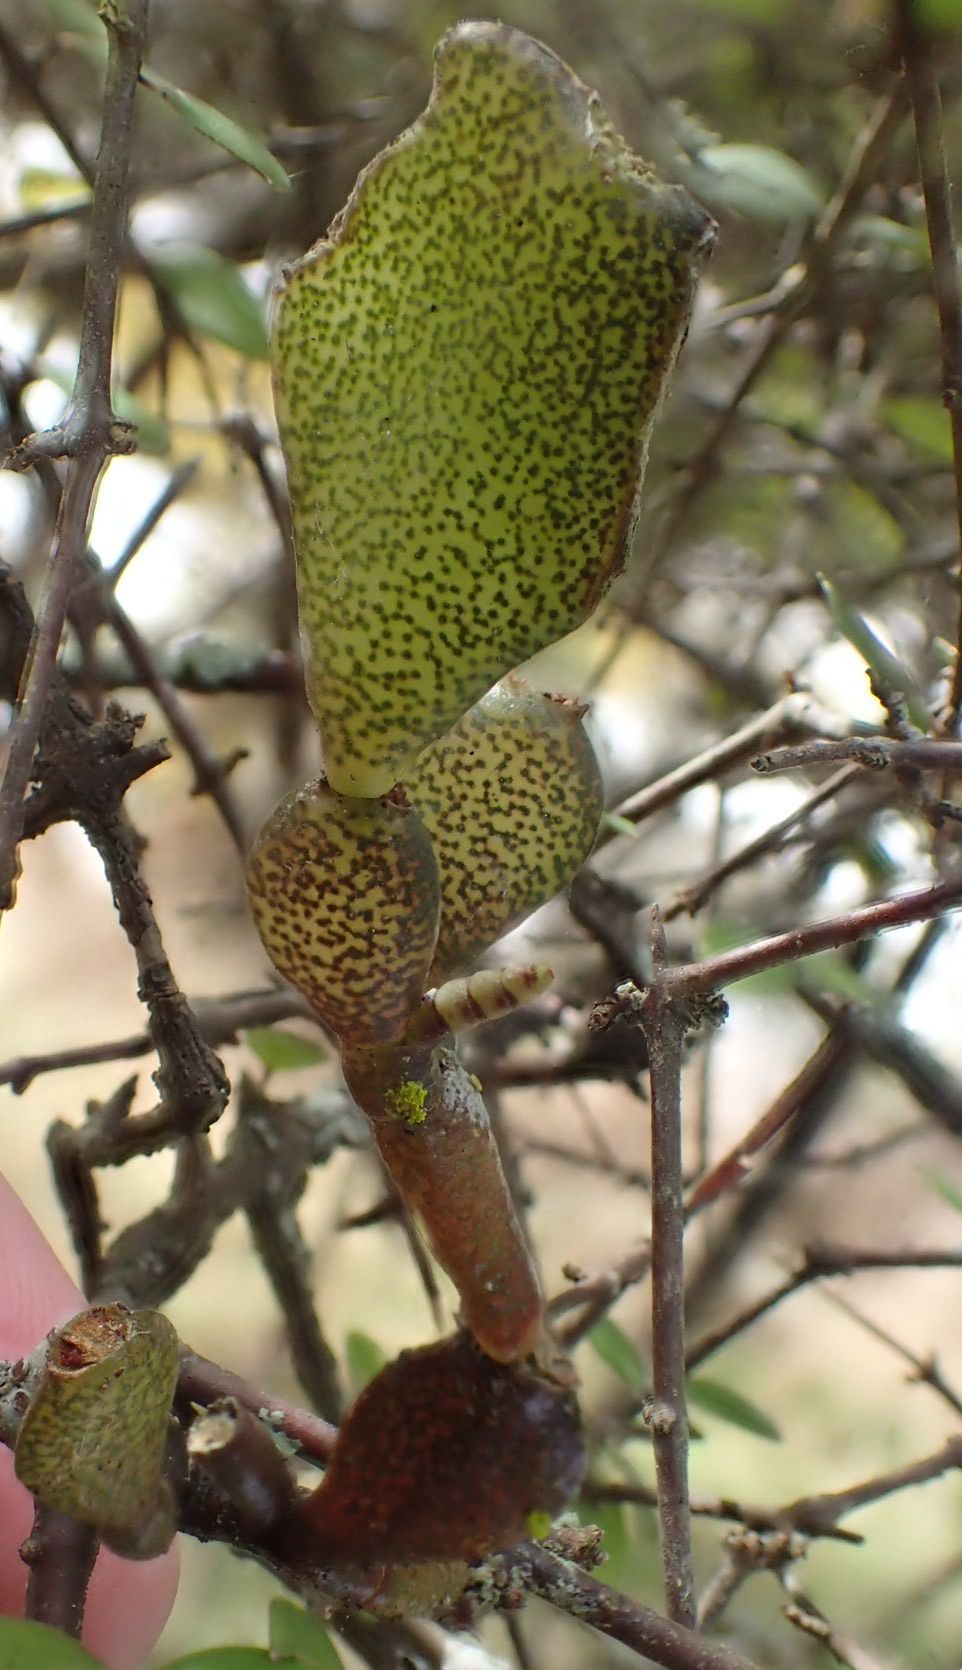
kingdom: Plantae
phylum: Tracheophyta
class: Magnoliopsida
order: Santalales
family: Viscaceae
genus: Korthalsella
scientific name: Korthalsella lindsayi
